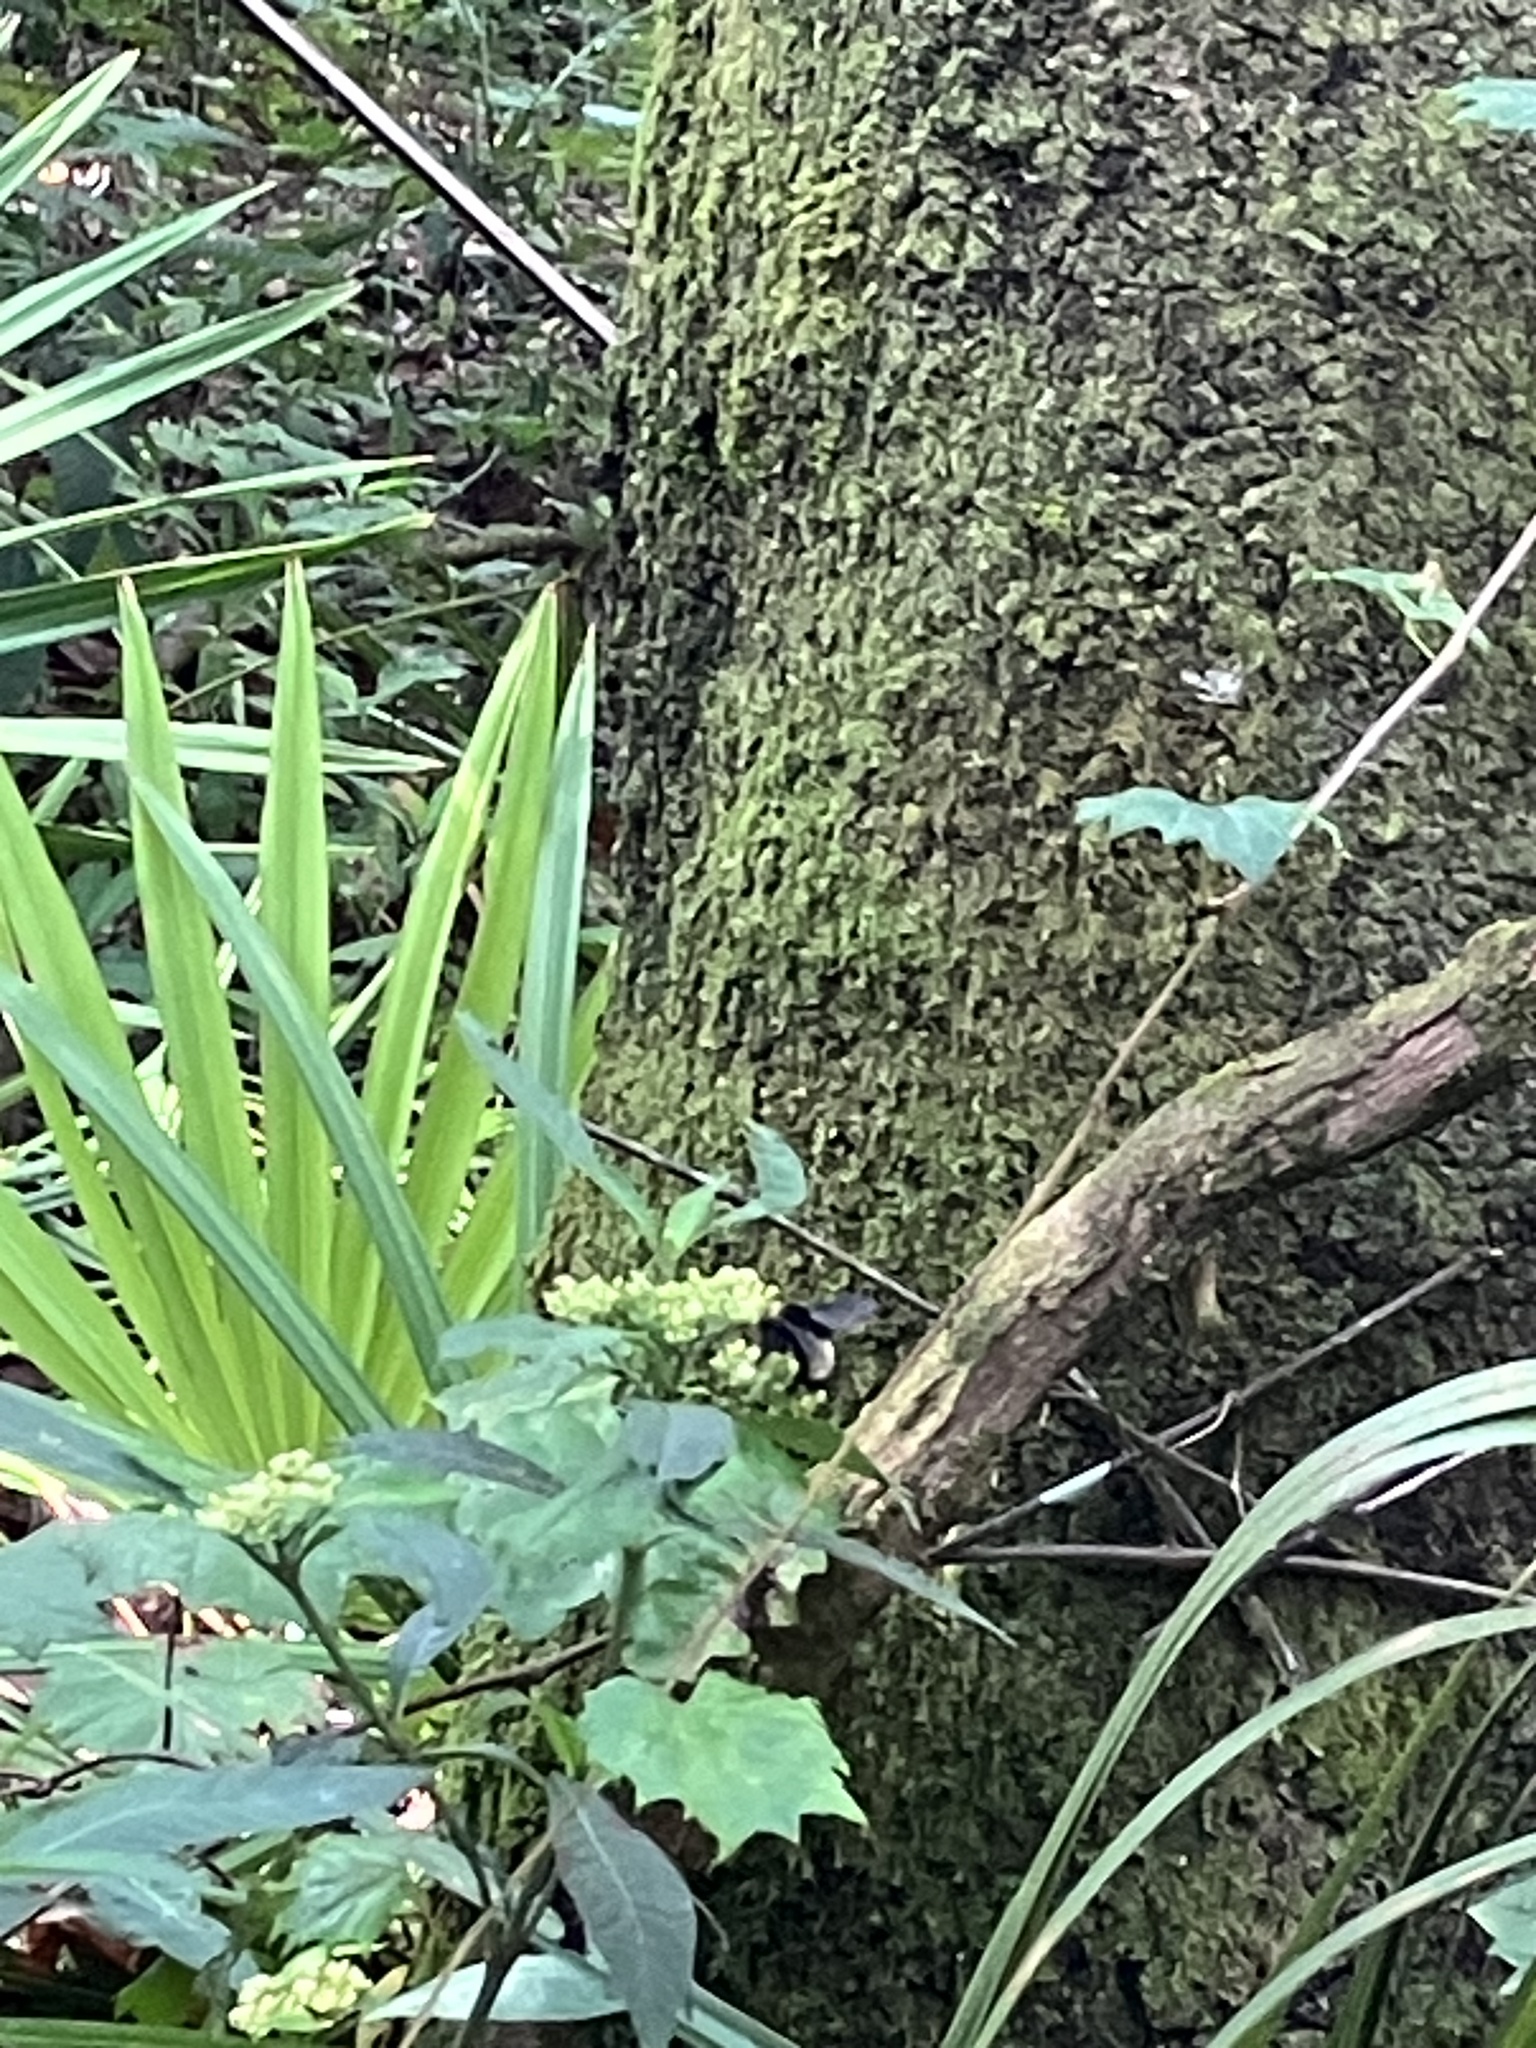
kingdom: Animalia
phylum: Arthropoda
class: Insecta
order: Hymenoptera
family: Apidae
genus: Bombus
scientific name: Bombus pensylvanicus
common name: Bumble bee
